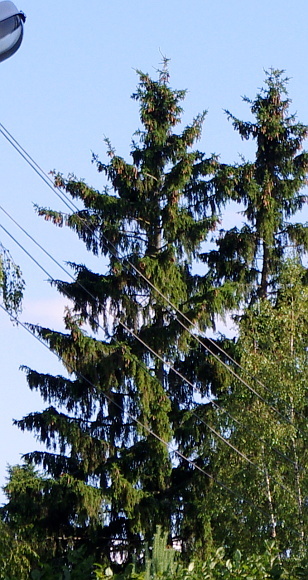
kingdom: Plantae
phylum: Tracheophyta
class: Pinopsida
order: Pinales
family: Pinaceae
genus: Picea
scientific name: Picea abies
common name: Norway spruce
